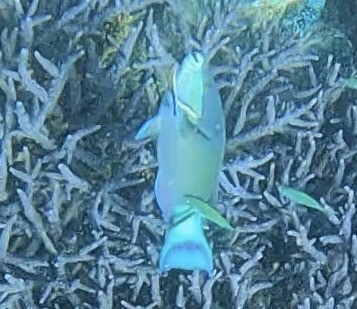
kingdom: Animalia
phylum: Chordata
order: Perciformes
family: Scaridae
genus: Scarus
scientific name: Scarus frenatus
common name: Bridled parrotfish
